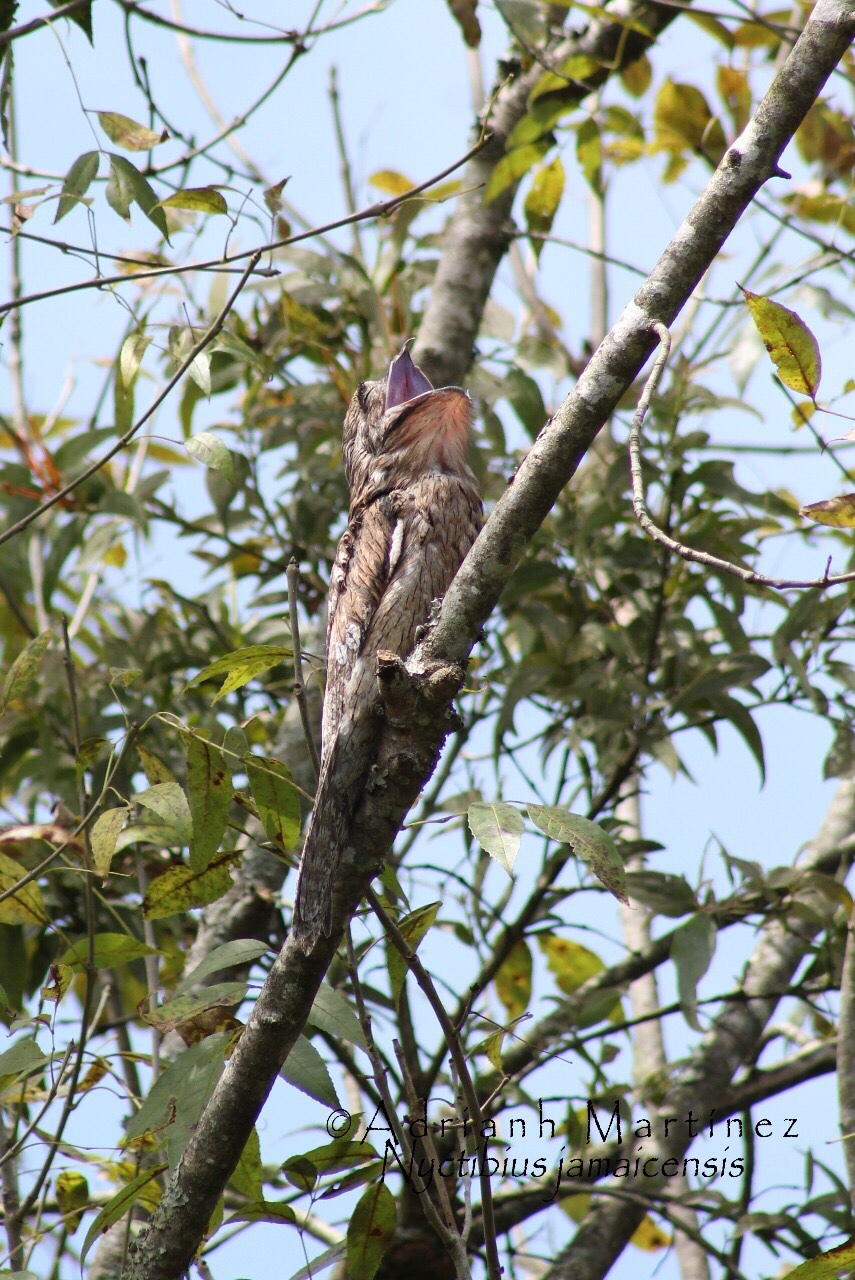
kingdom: Animalia
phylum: Chordata
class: Aves
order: Nyctibiiformes
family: Nyctibiidae
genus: Nyctibius
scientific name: Nyctibius jamaicensis
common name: Northern potoo
